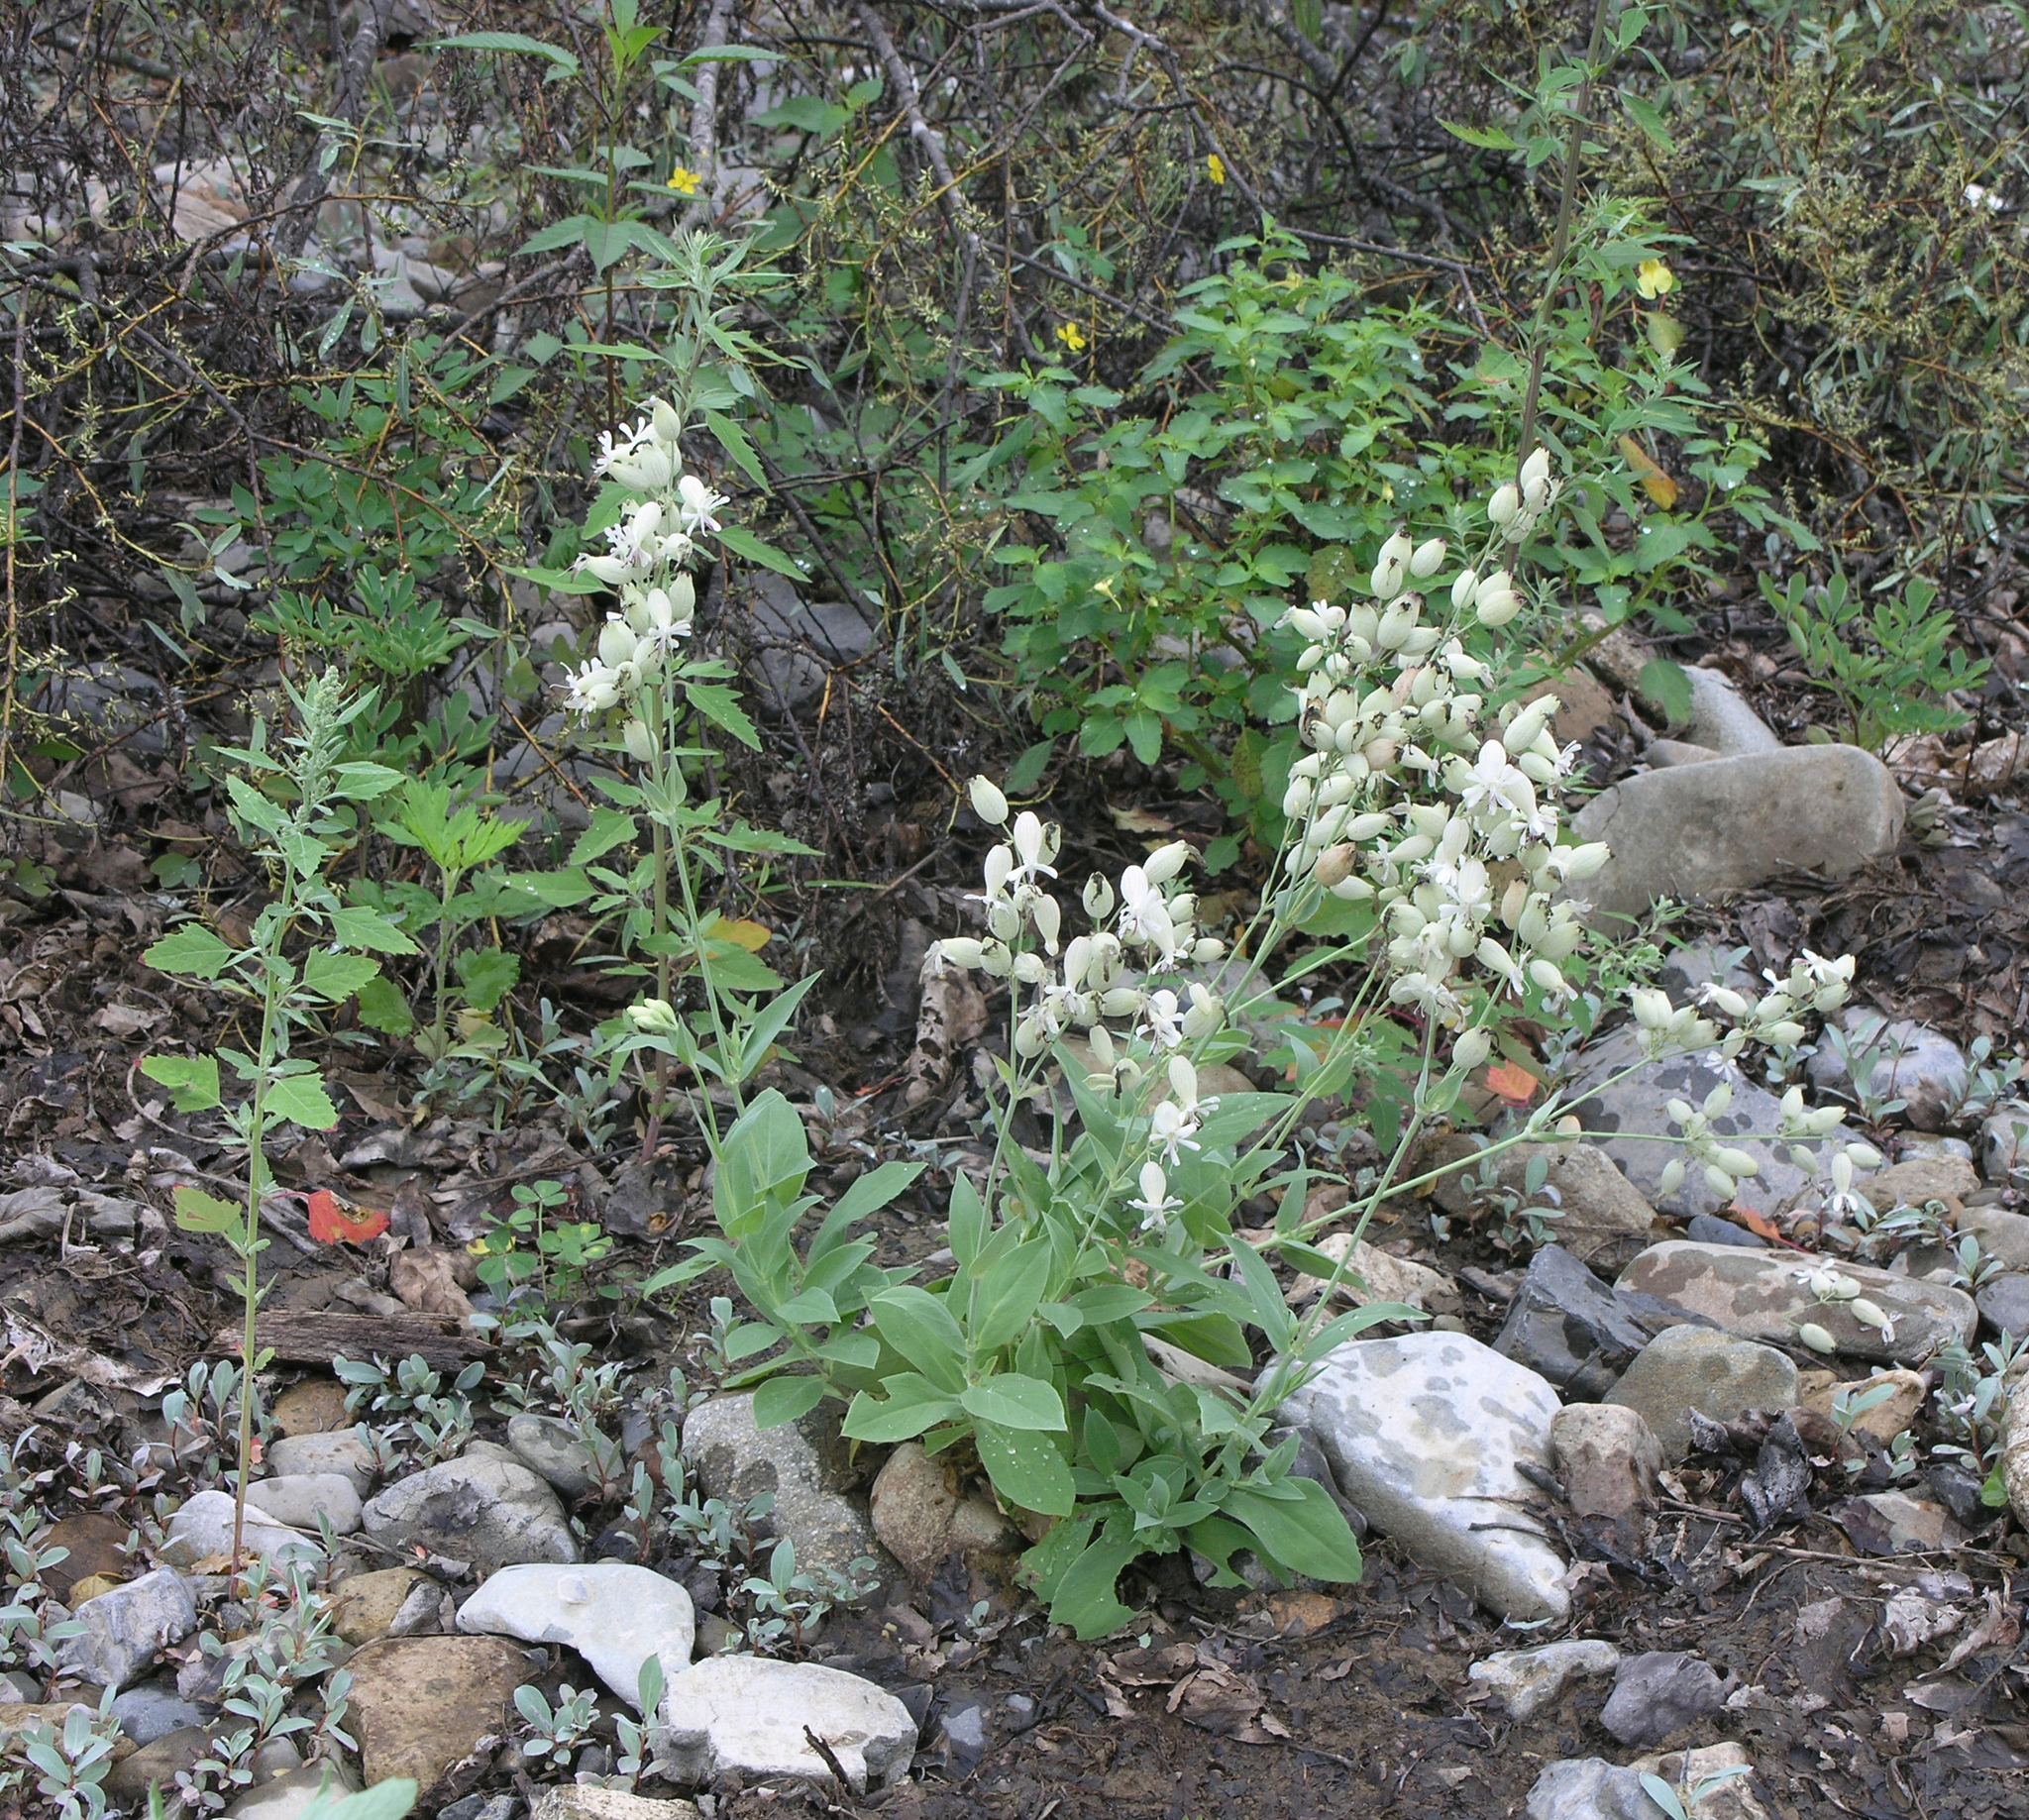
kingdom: Plantae
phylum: Tracheophyta
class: Magnoliopsida
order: Caryophyllales
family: Caryophyllaceae
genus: Silene
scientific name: Silene vulgaris
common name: Bladder campion
